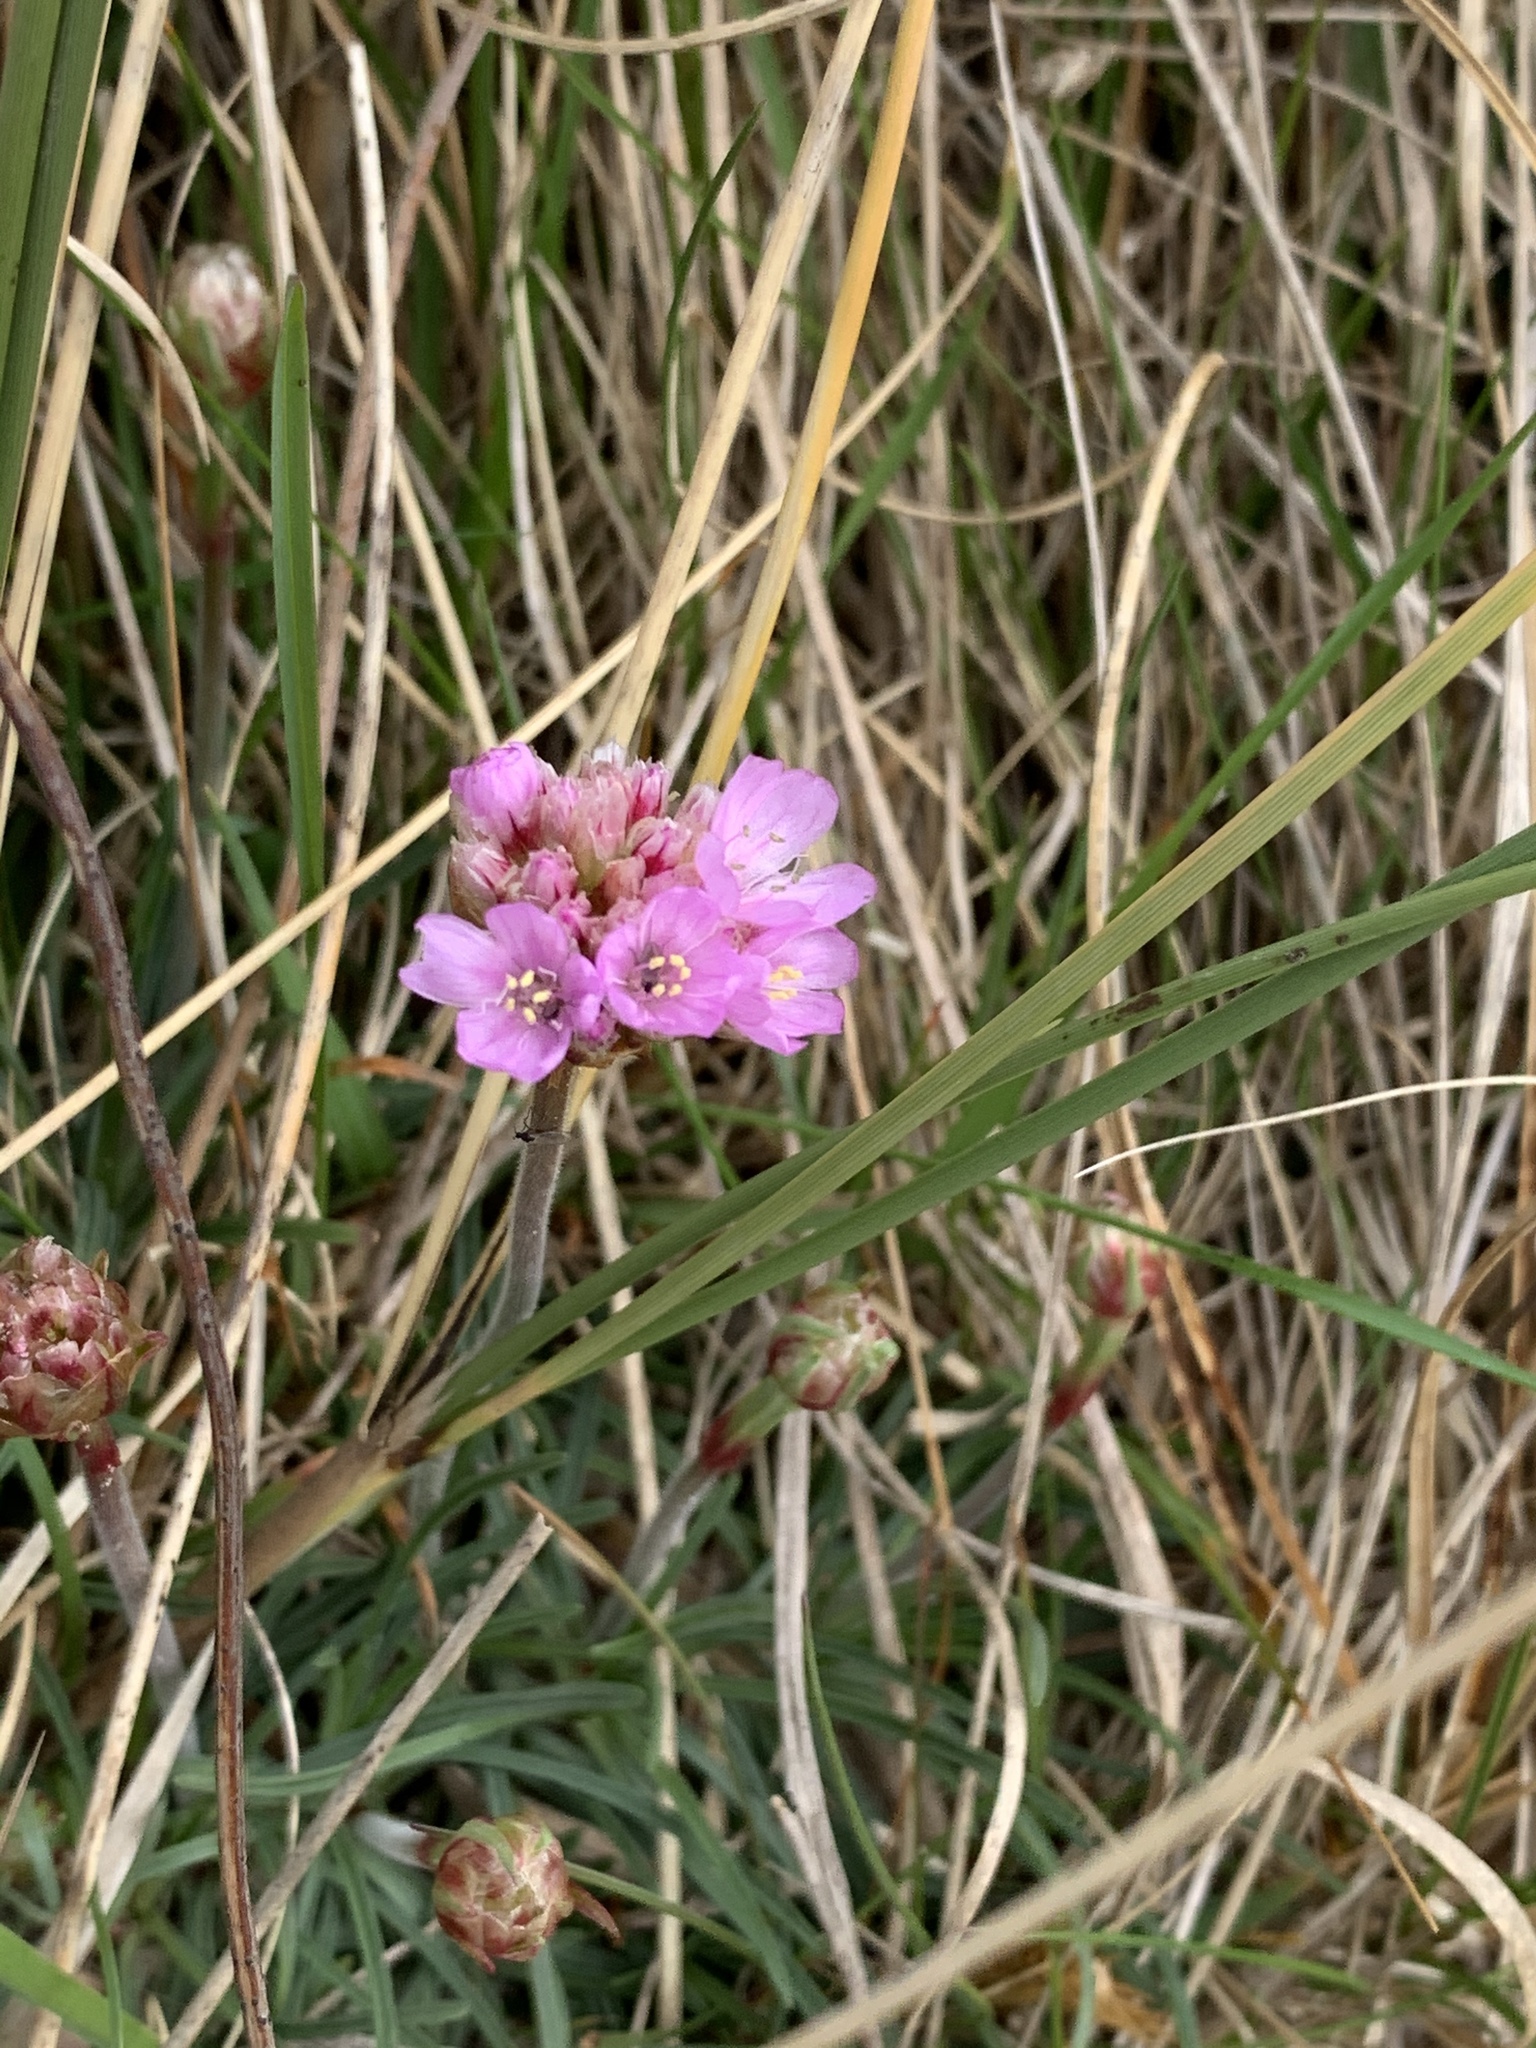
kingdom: Plantae
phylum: Tracheophyta
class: Magnoliopsida
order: Caryophyllales
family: Plumbaginaceae
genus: Armeria
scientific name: Armeria maritima
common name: Thrift
